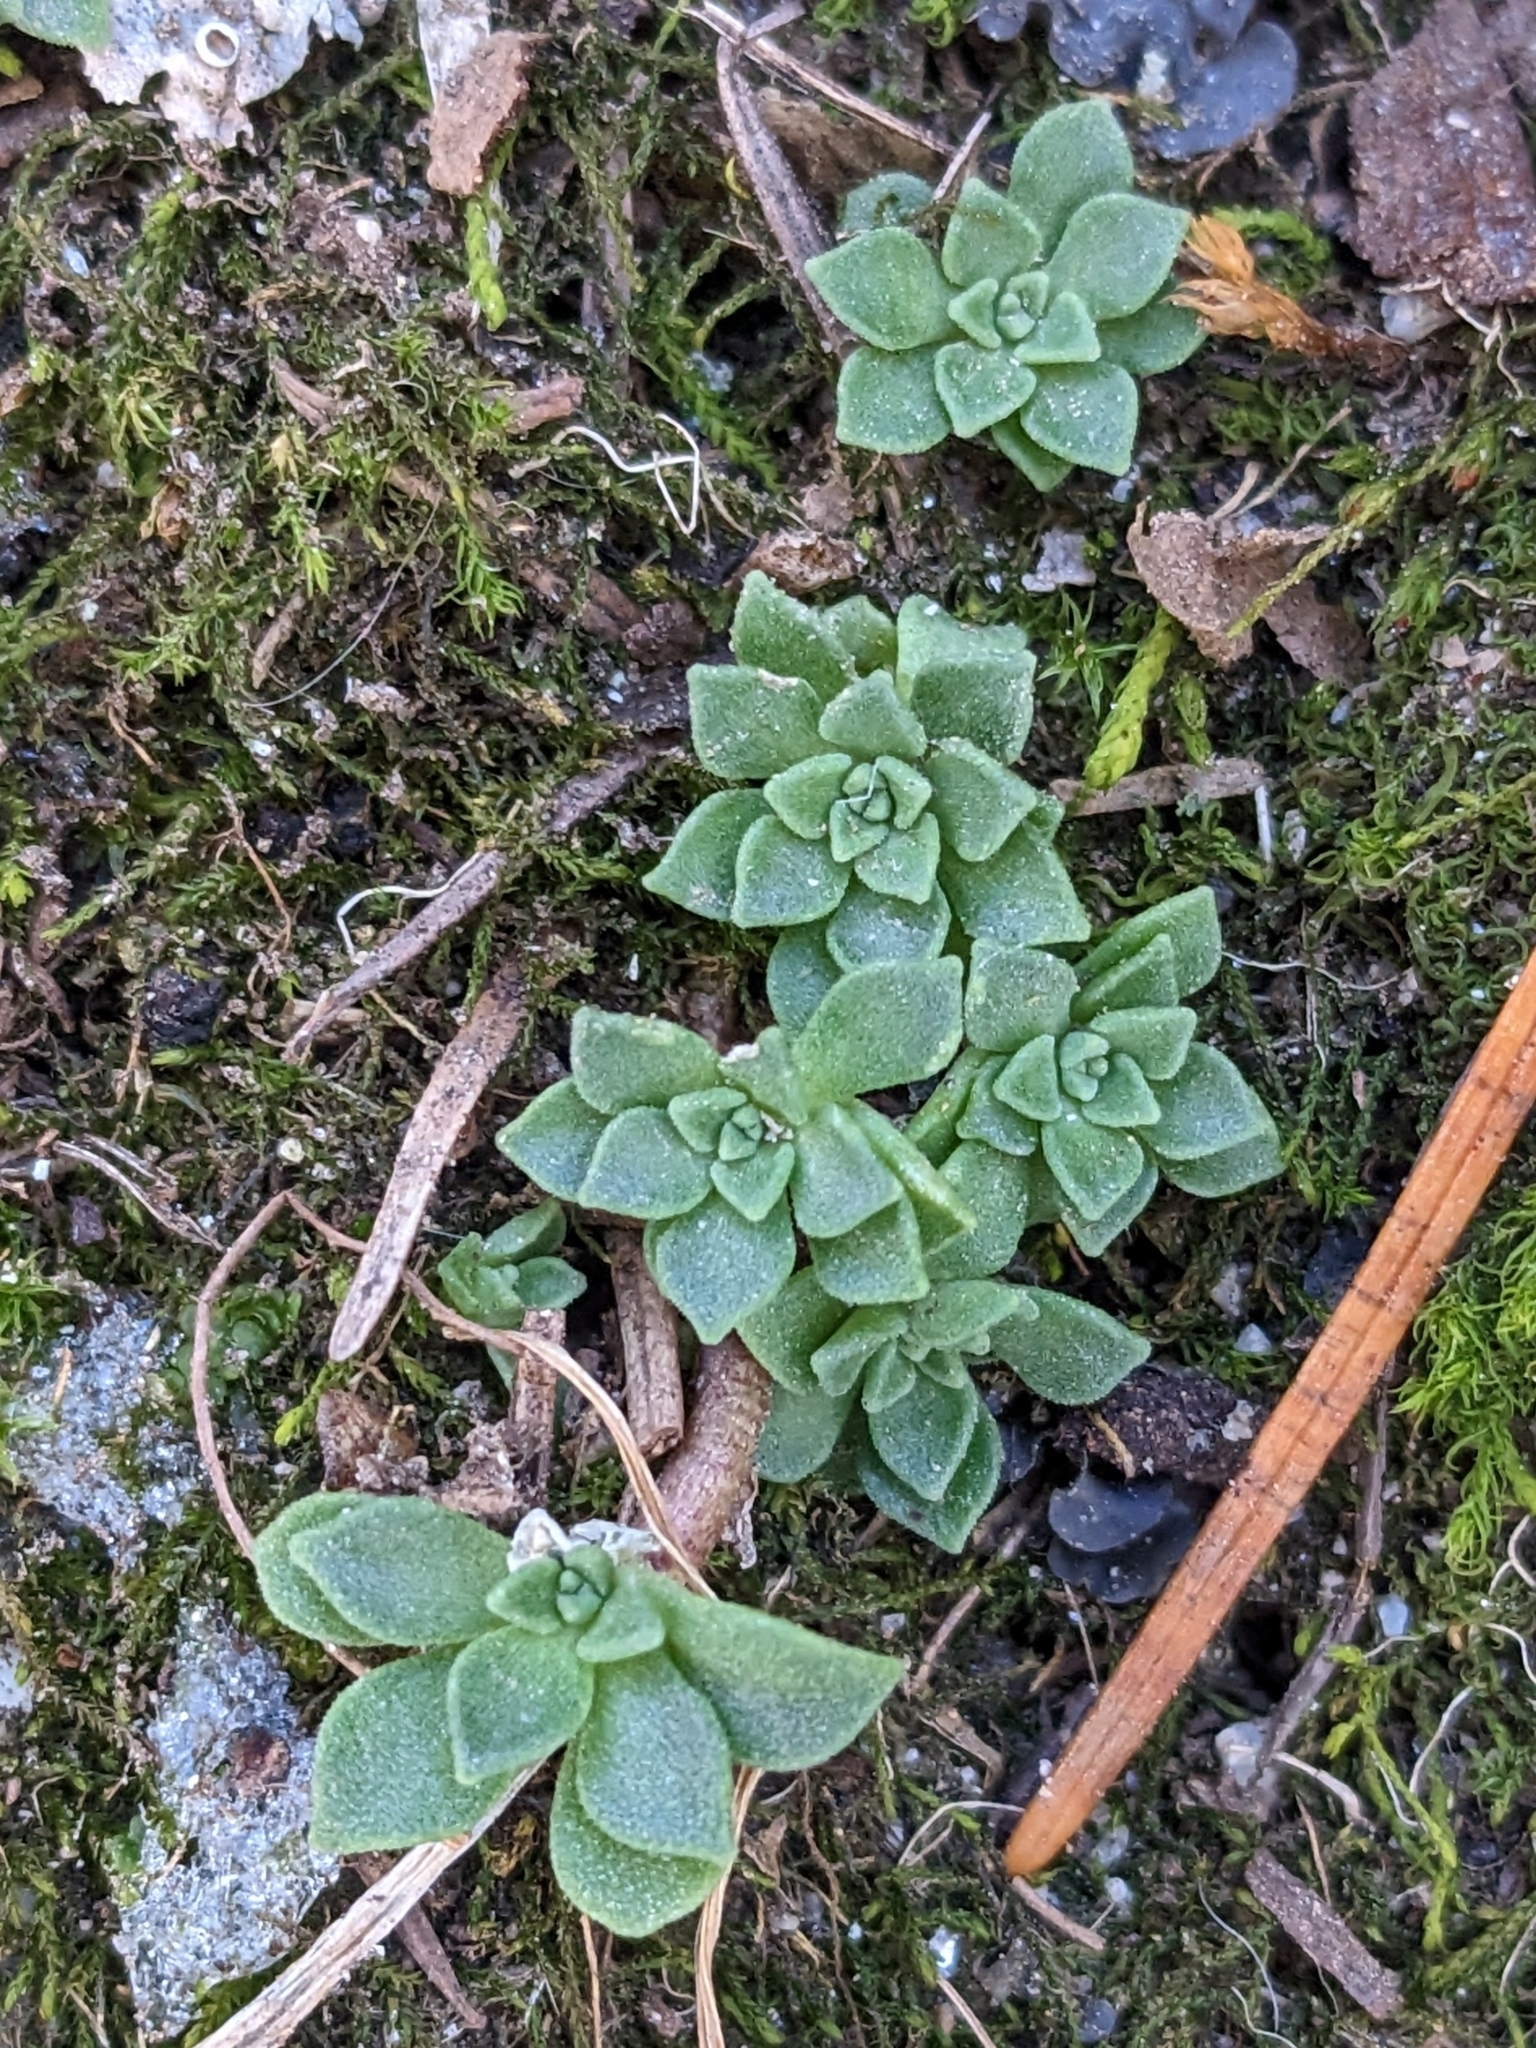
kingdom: Plantae
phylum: Tracheophyta
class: Magnoliopsida
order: Saxifragales
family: Crassulaceae
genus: Sedum
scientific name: Sedum cockerellii
